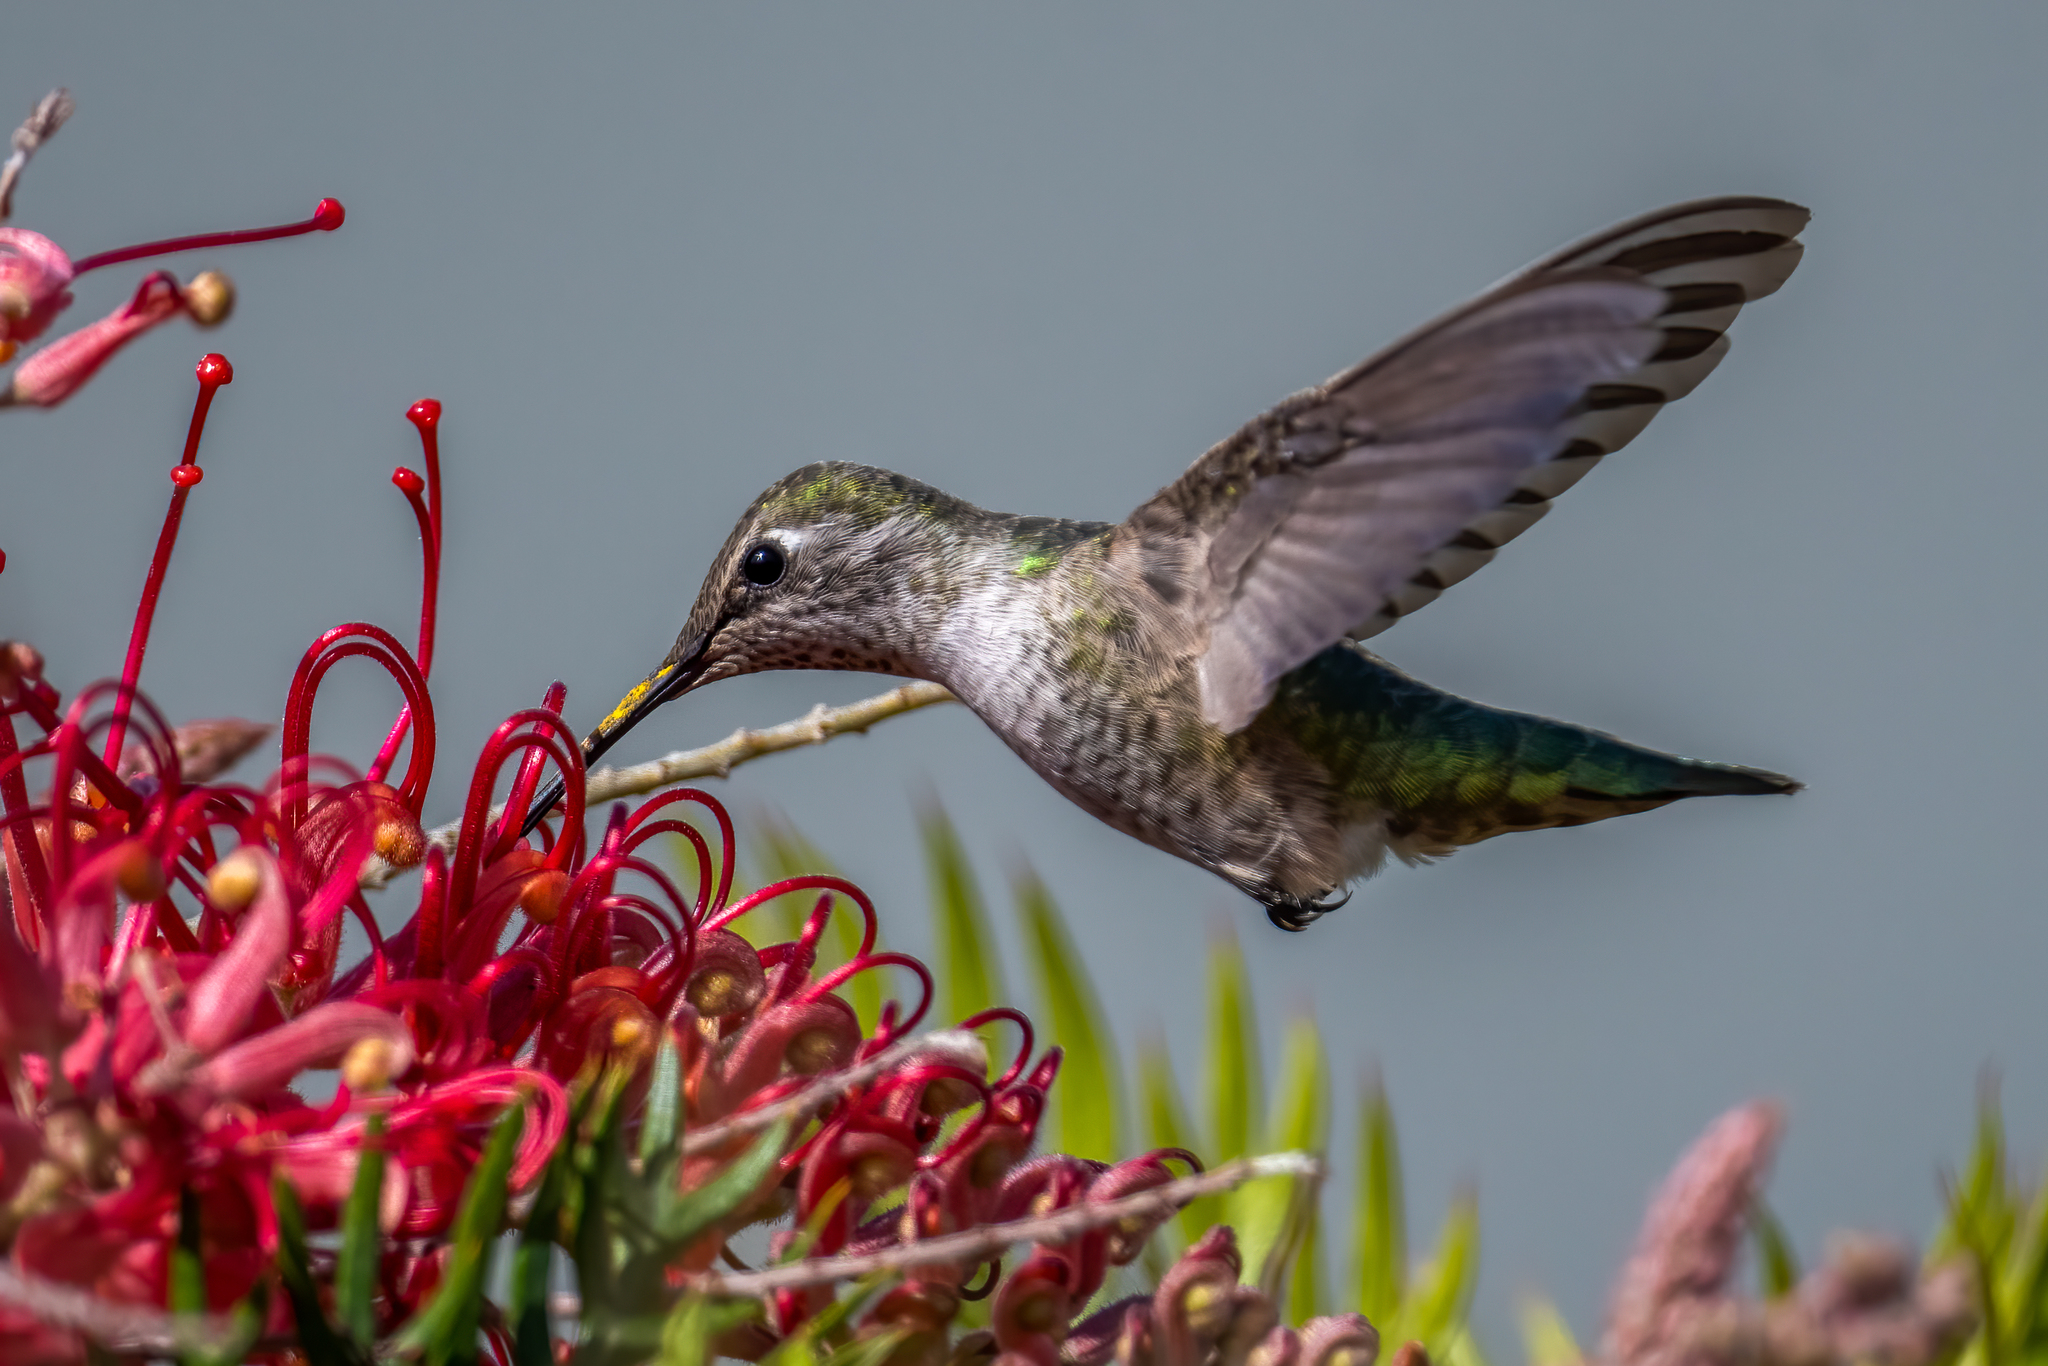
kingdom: Animalia
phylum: Chordata
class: Aves
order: Apodiformes
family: Trochilidae
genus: Calypte
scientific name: Calypte anna
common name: Anna's hummingbird
